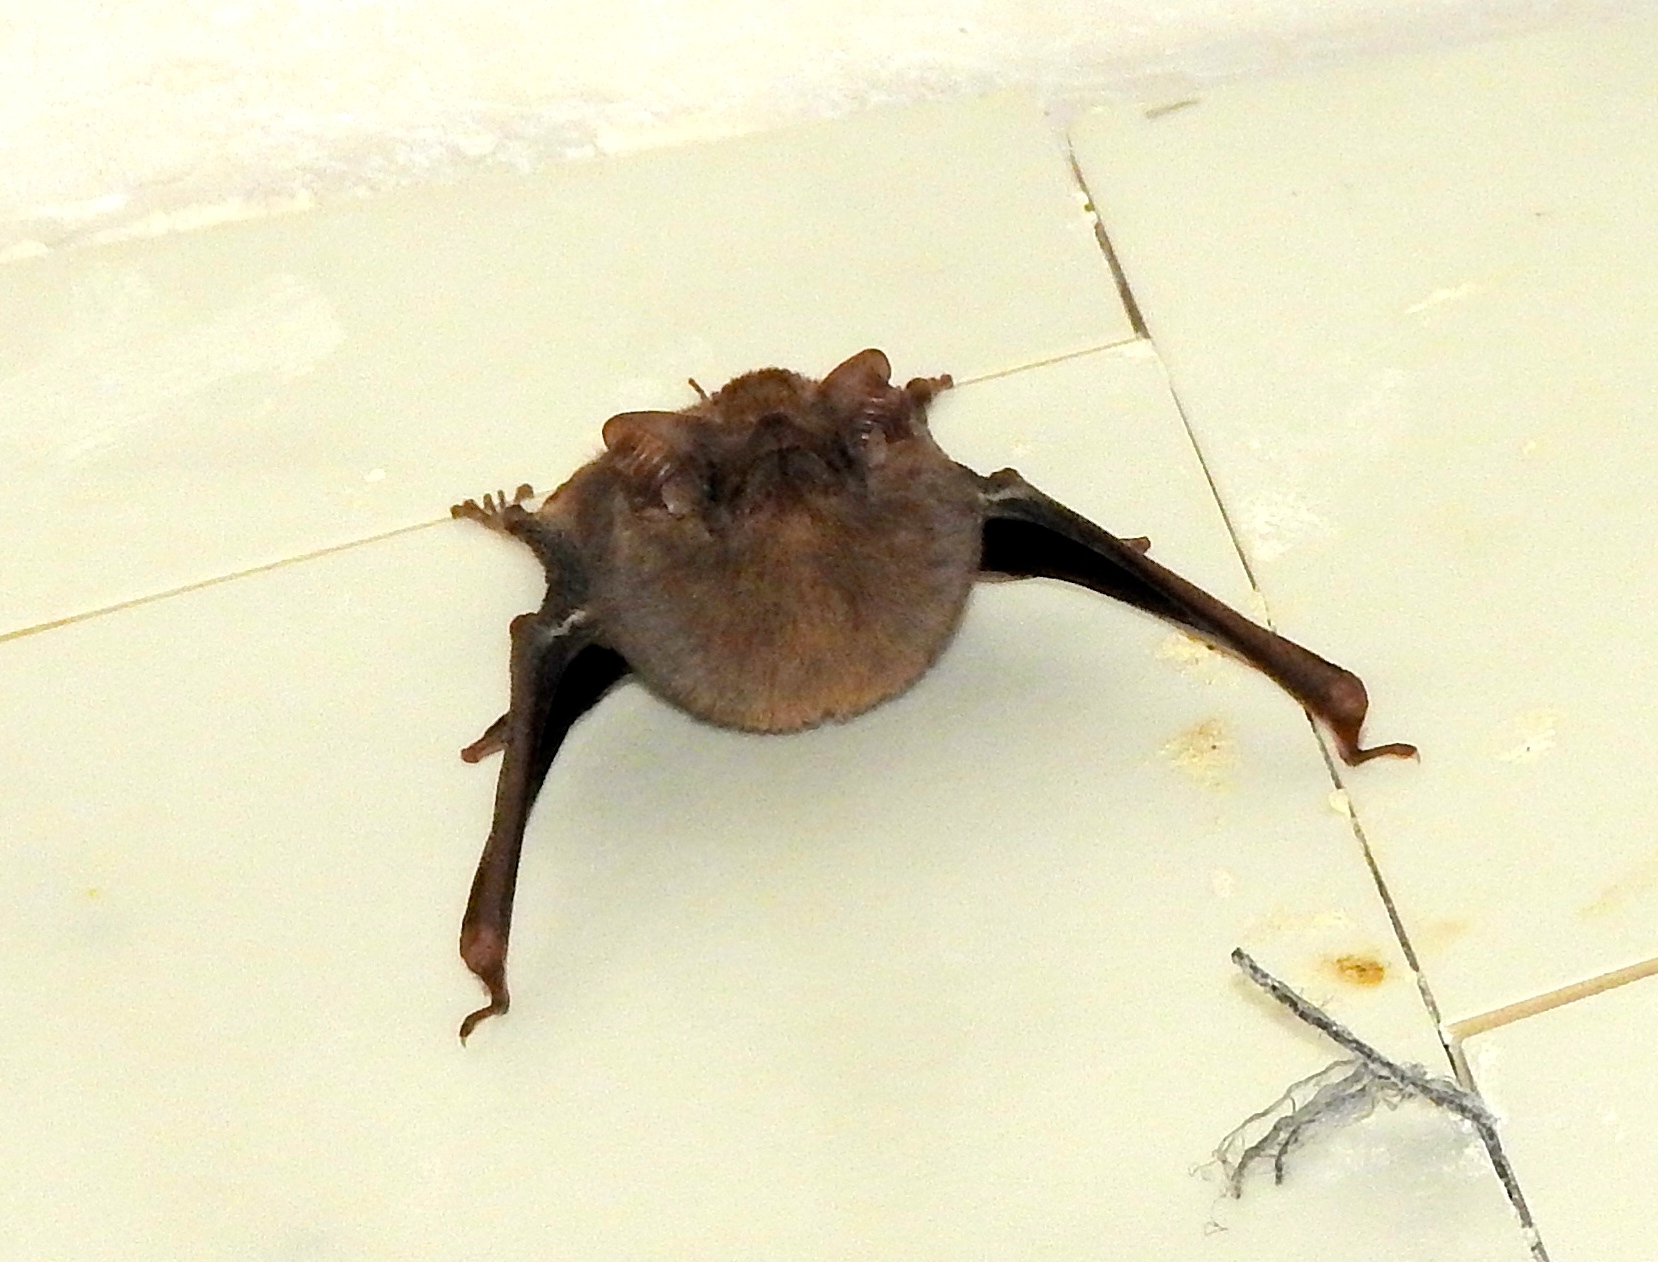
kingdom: Animalia
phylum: Chordata
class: Mammalia
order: Chiroptera
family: Emballonuridae
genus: Balantiopteryx
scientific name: Balantiopteryx plicata
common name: Gray sac-winged bat
